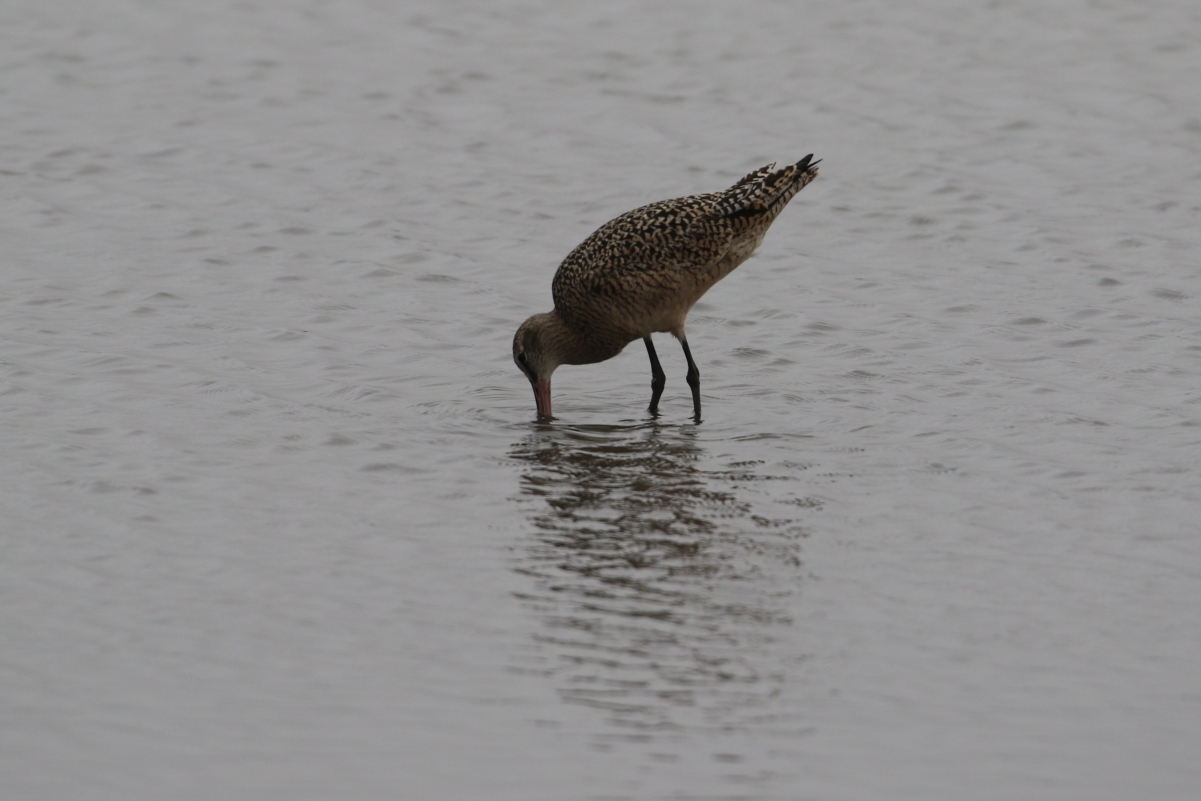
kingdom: Animalia
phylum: Chordata
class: Aves
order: Charadriiformes
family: Scolopacidae
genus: Limosa
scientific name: Limosa fedoa
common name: Marbled godwit
